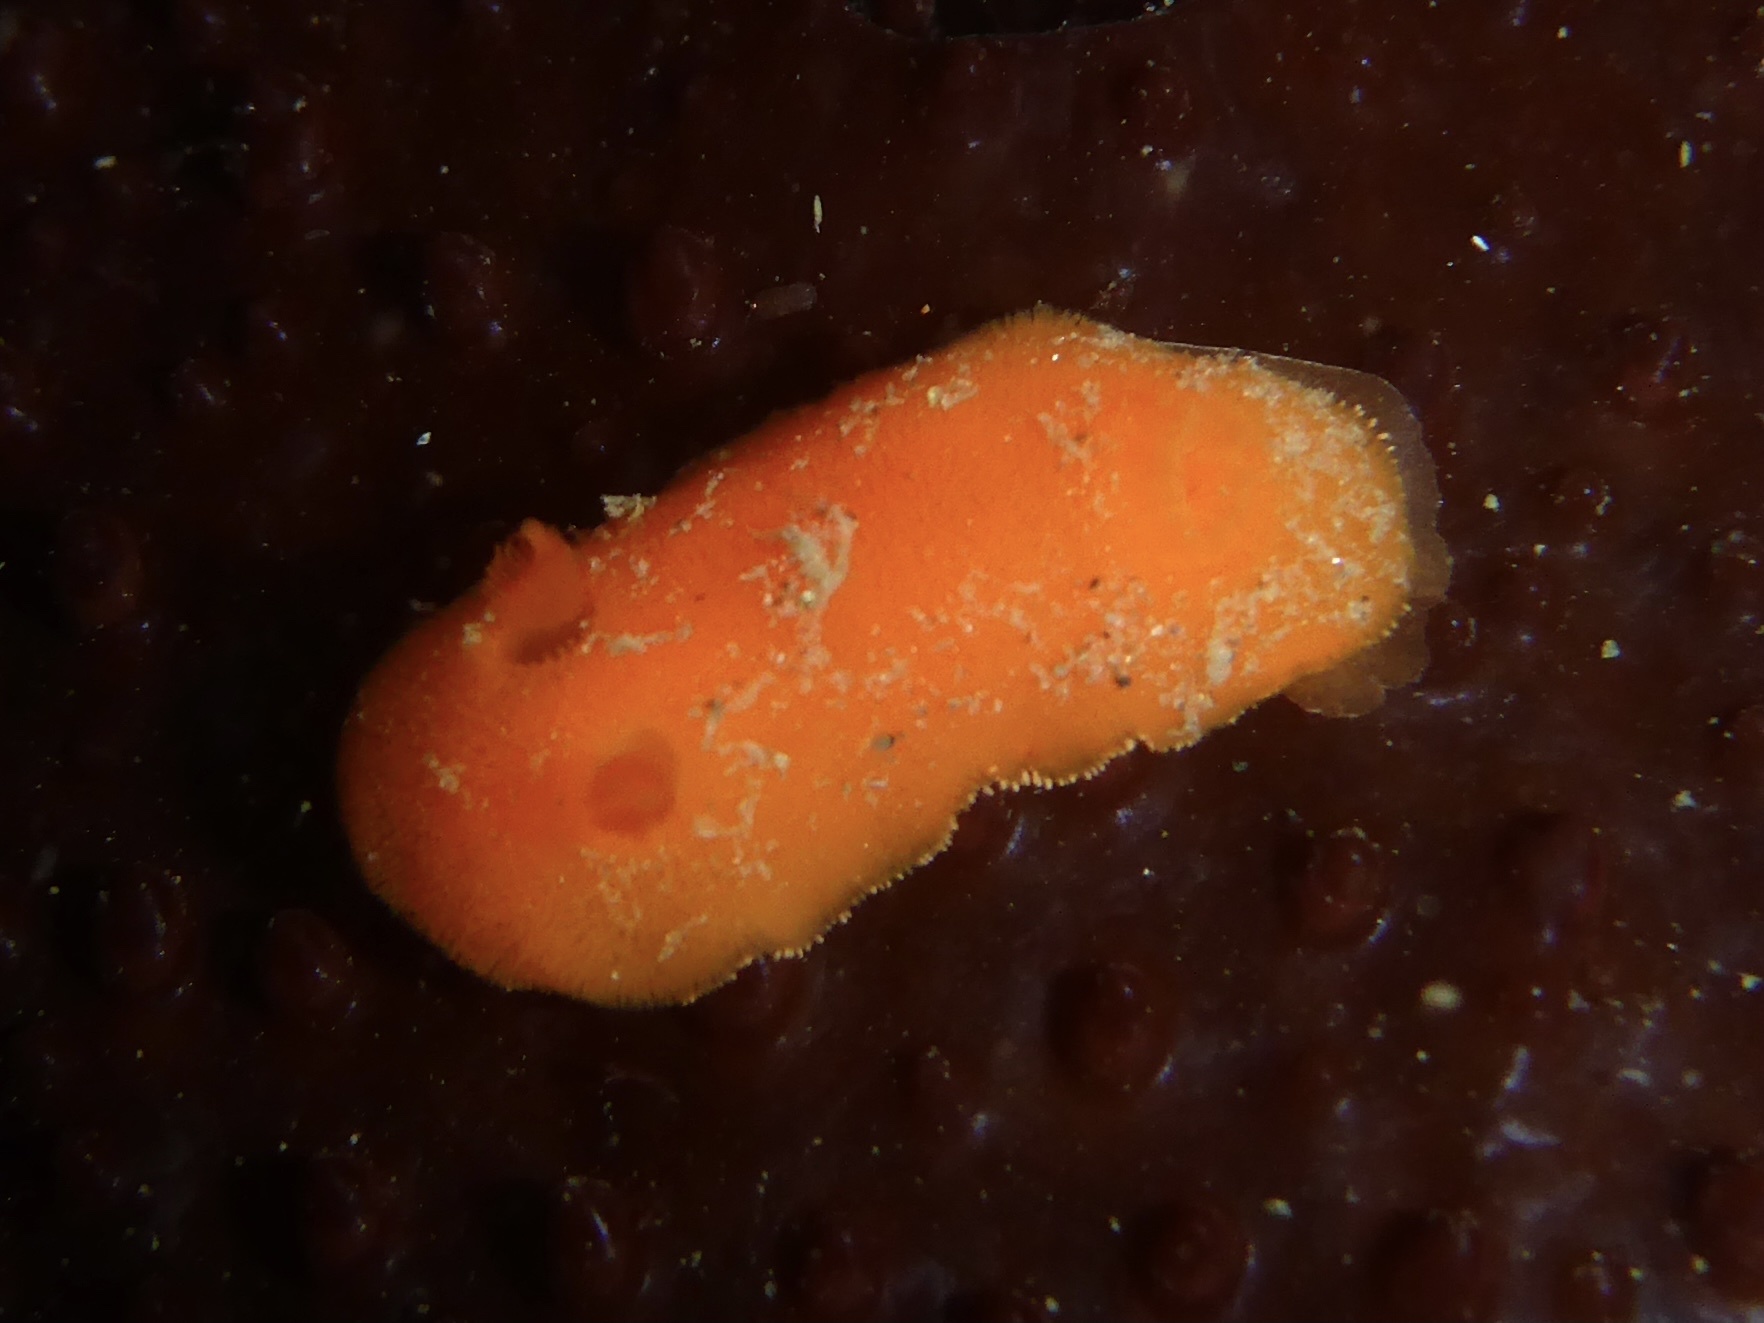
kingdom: Animalia
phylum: Mollusca
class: Gastropoda
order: Nudibranchia
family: Discodorididae
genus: Rostanga
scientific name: Rostanga pulchra
